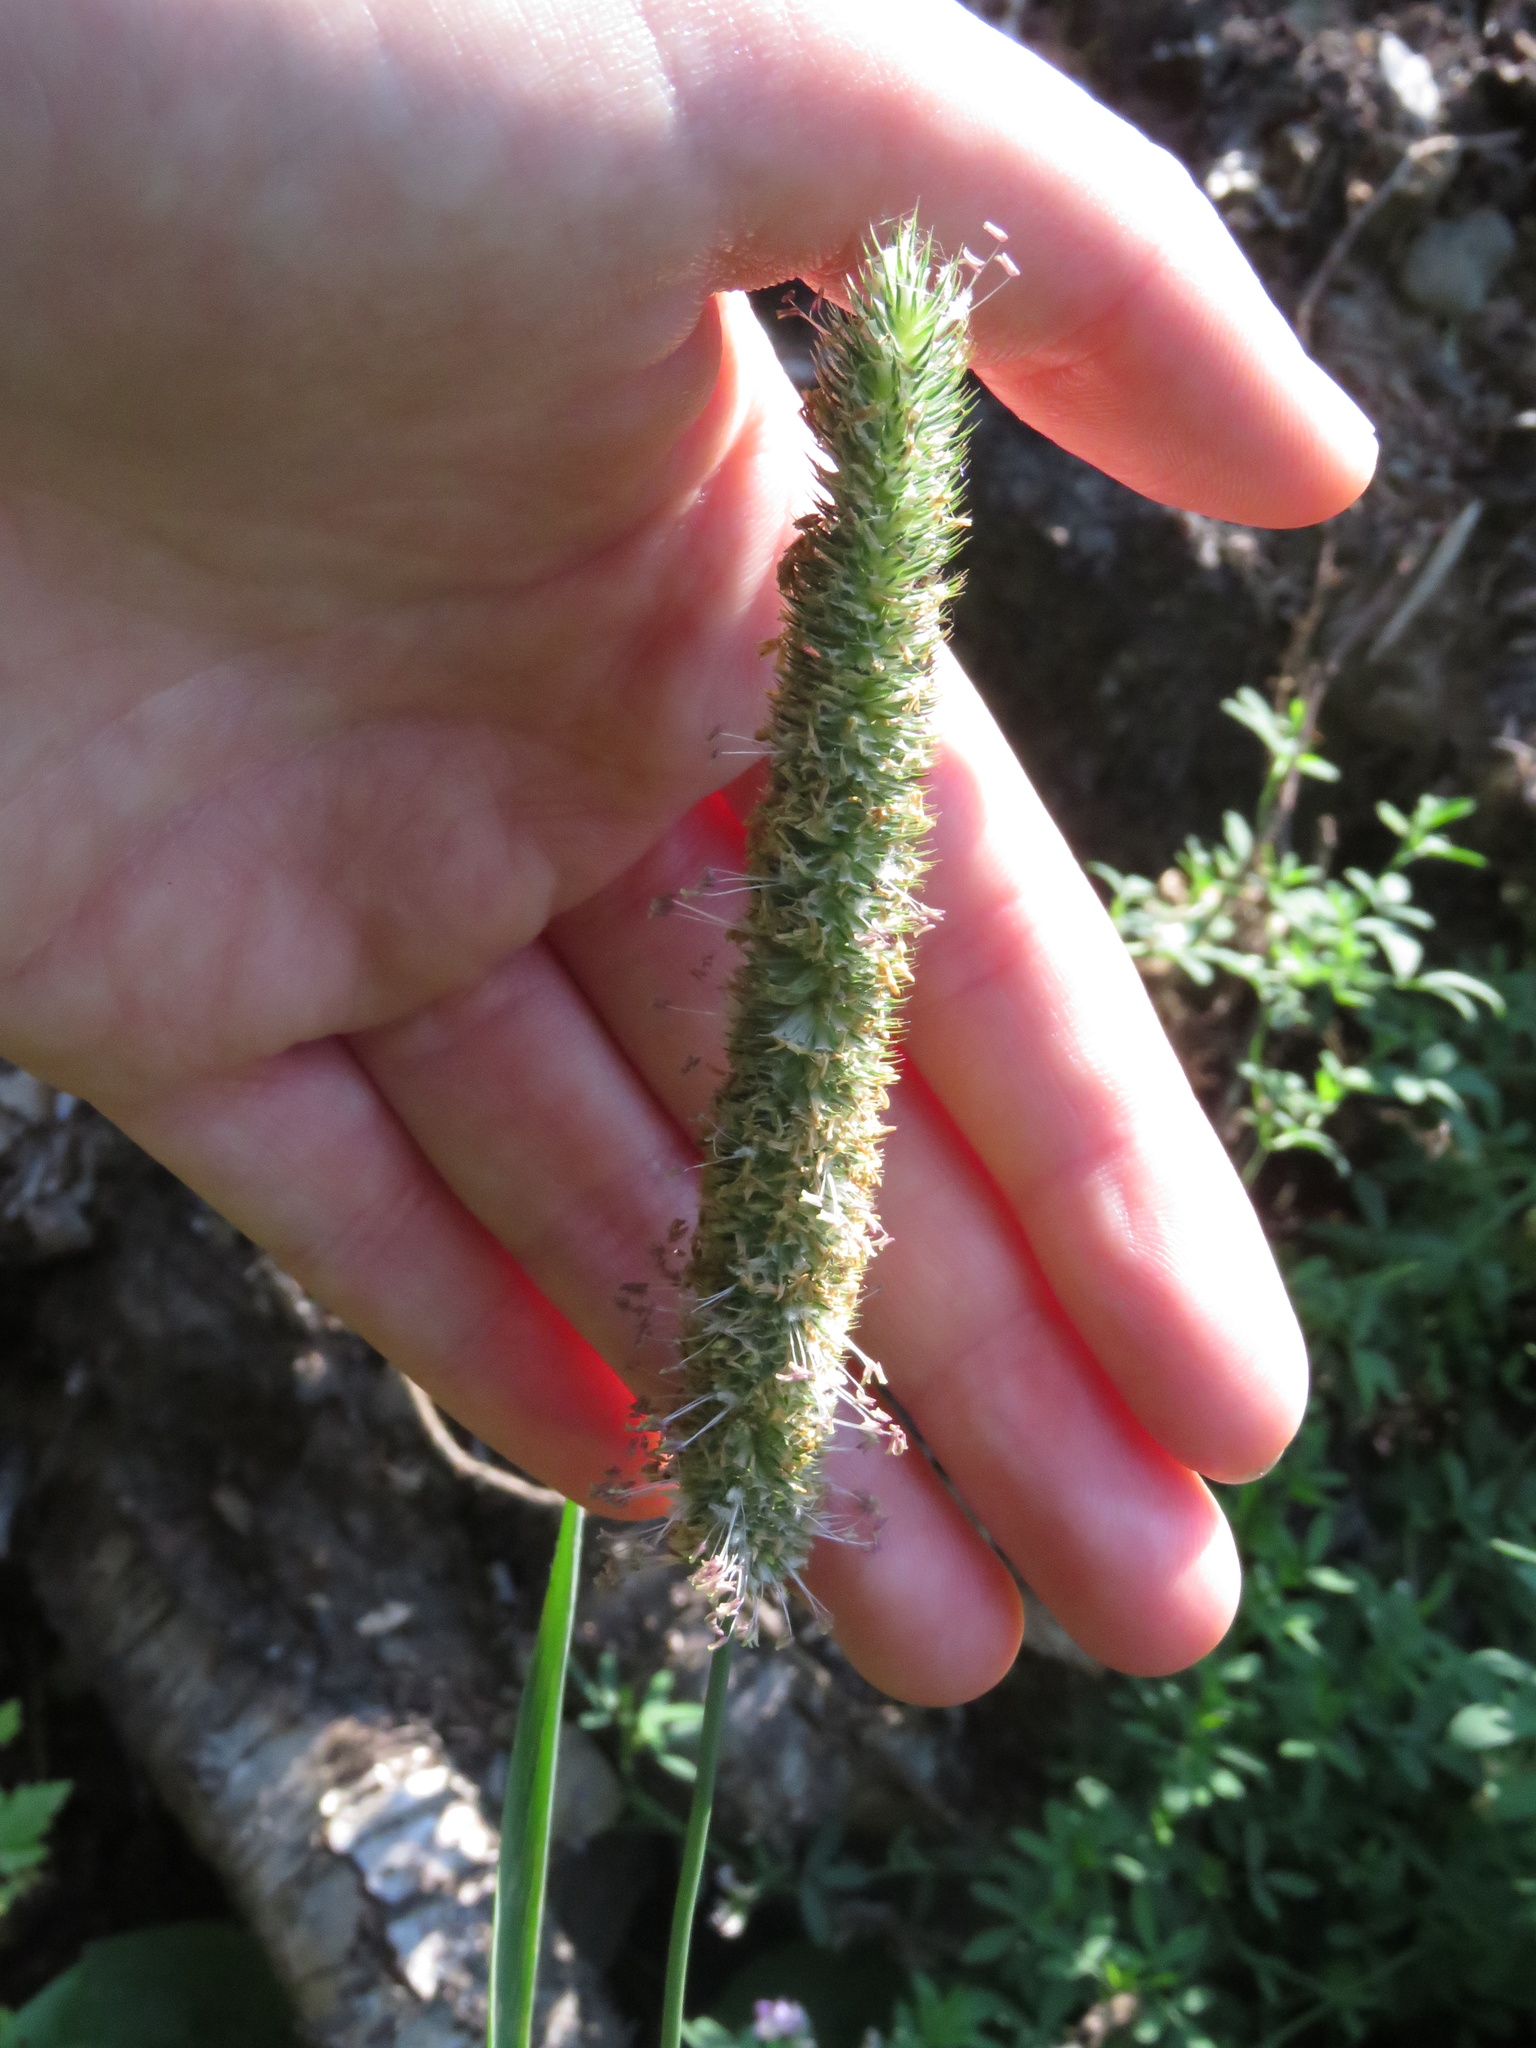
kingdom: Plantae
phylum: Tracheophyta
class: Liliopsida
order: Poales
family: Poaceae
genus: Phleum
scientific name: Phleum pratense
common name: Timothy grass
